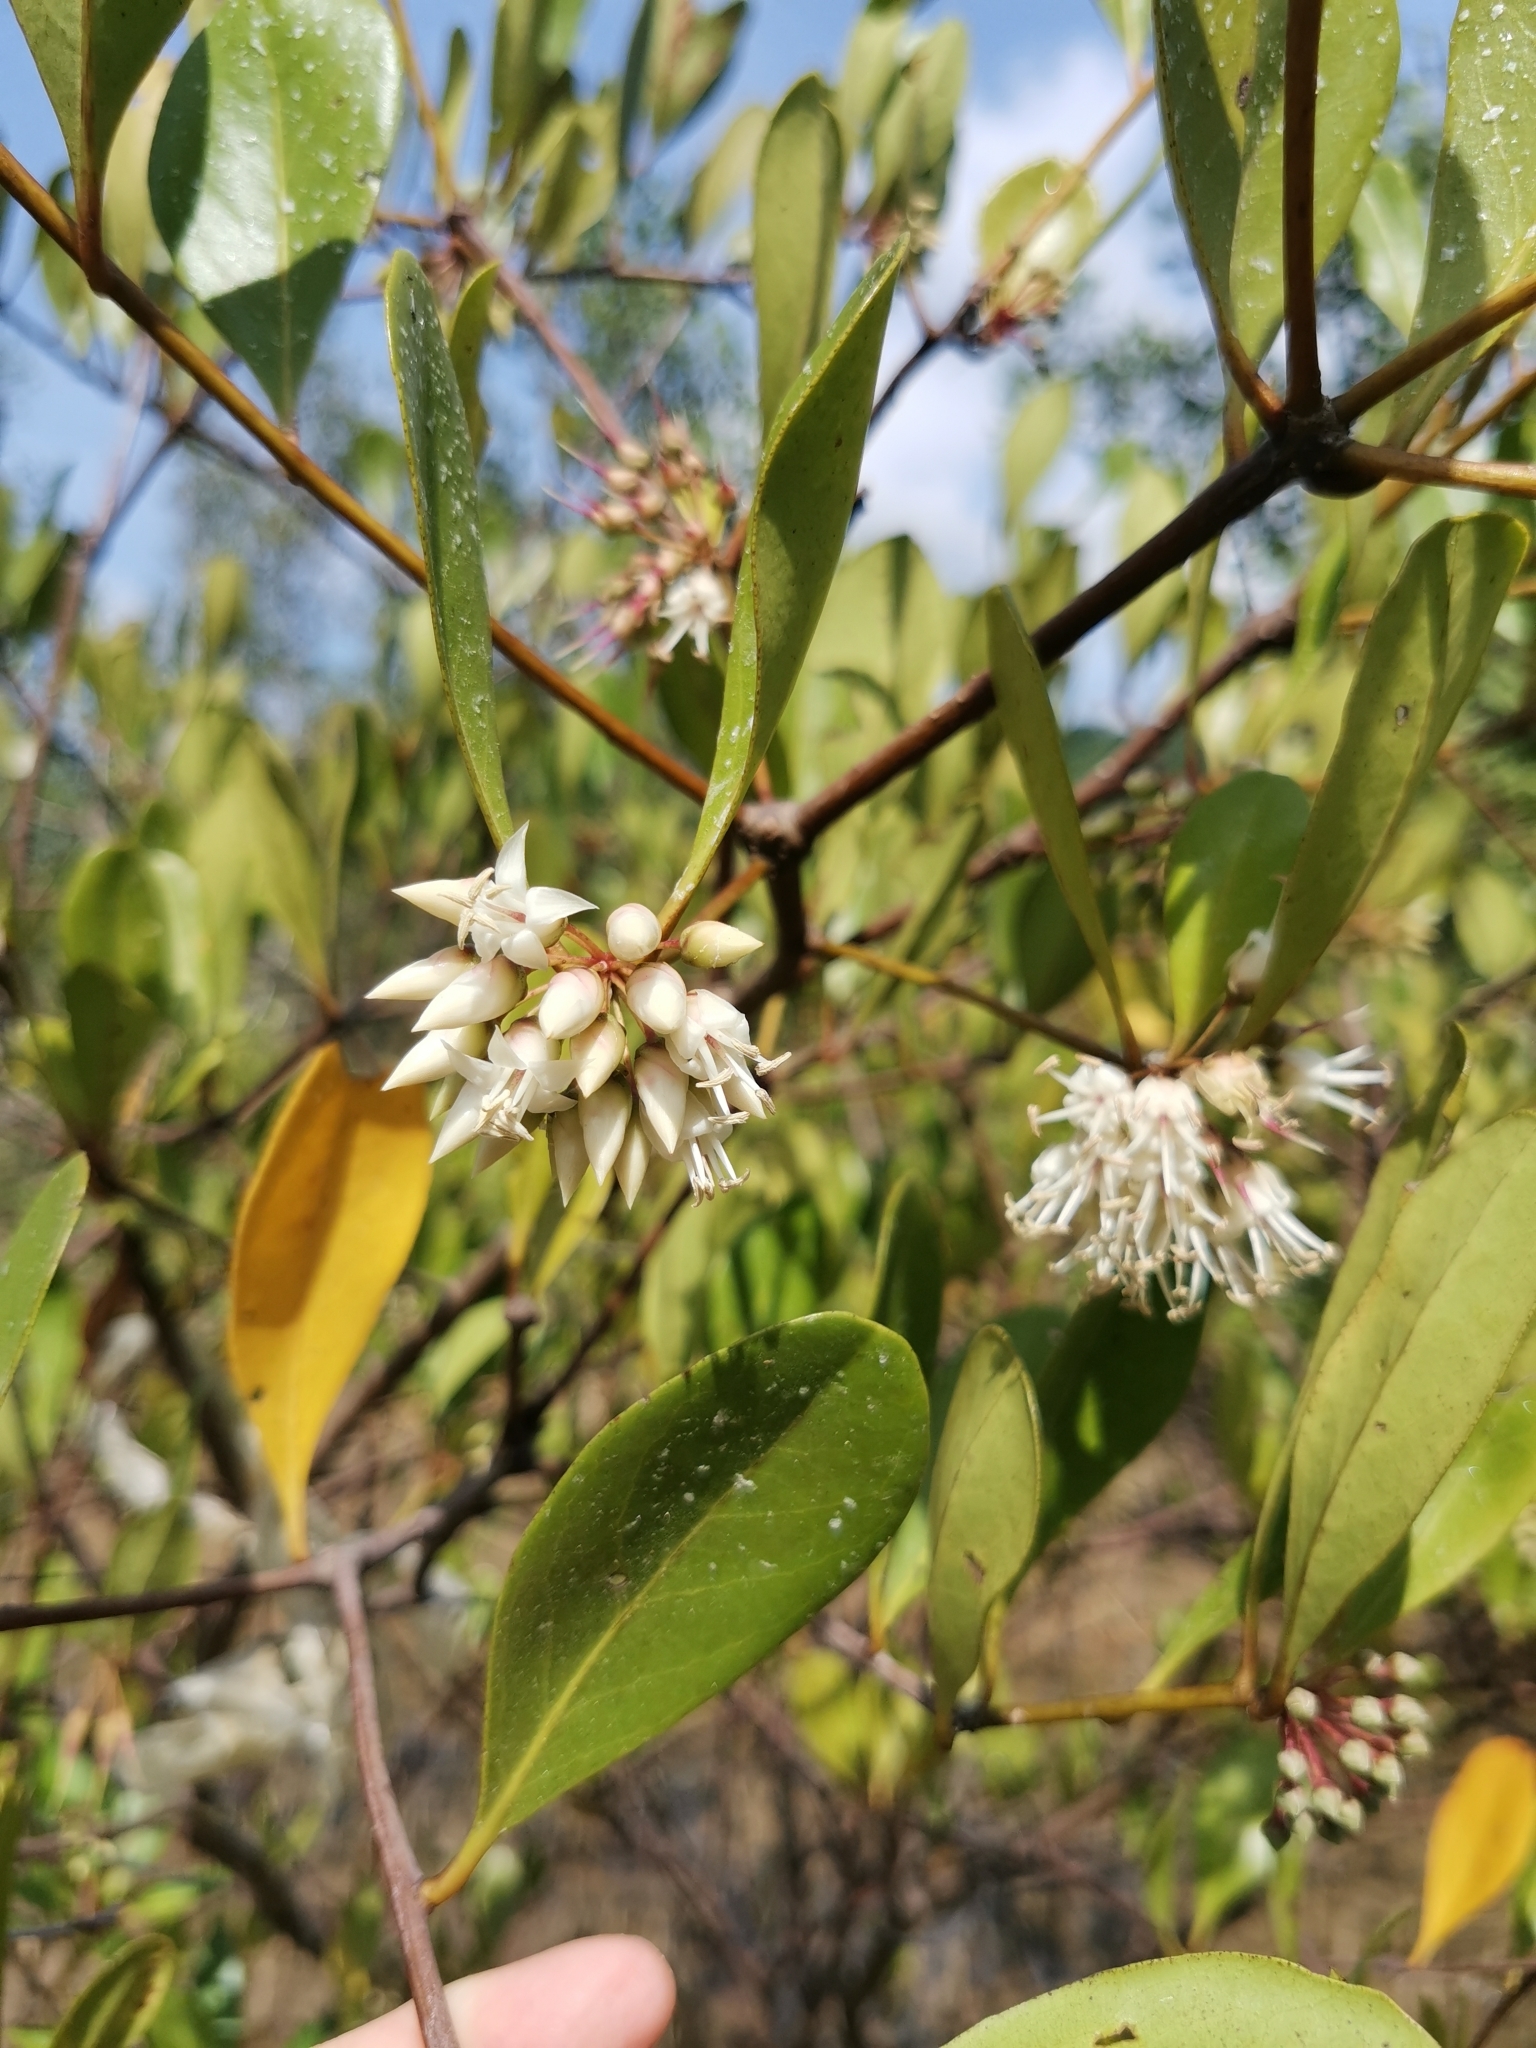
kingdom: Plantae
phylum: Tracheophyta
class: Magnoliopsida
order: Ericales
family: Primulaceae
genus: Aegiceras
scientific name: Aegiceras corniculatum
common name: River mangrove
